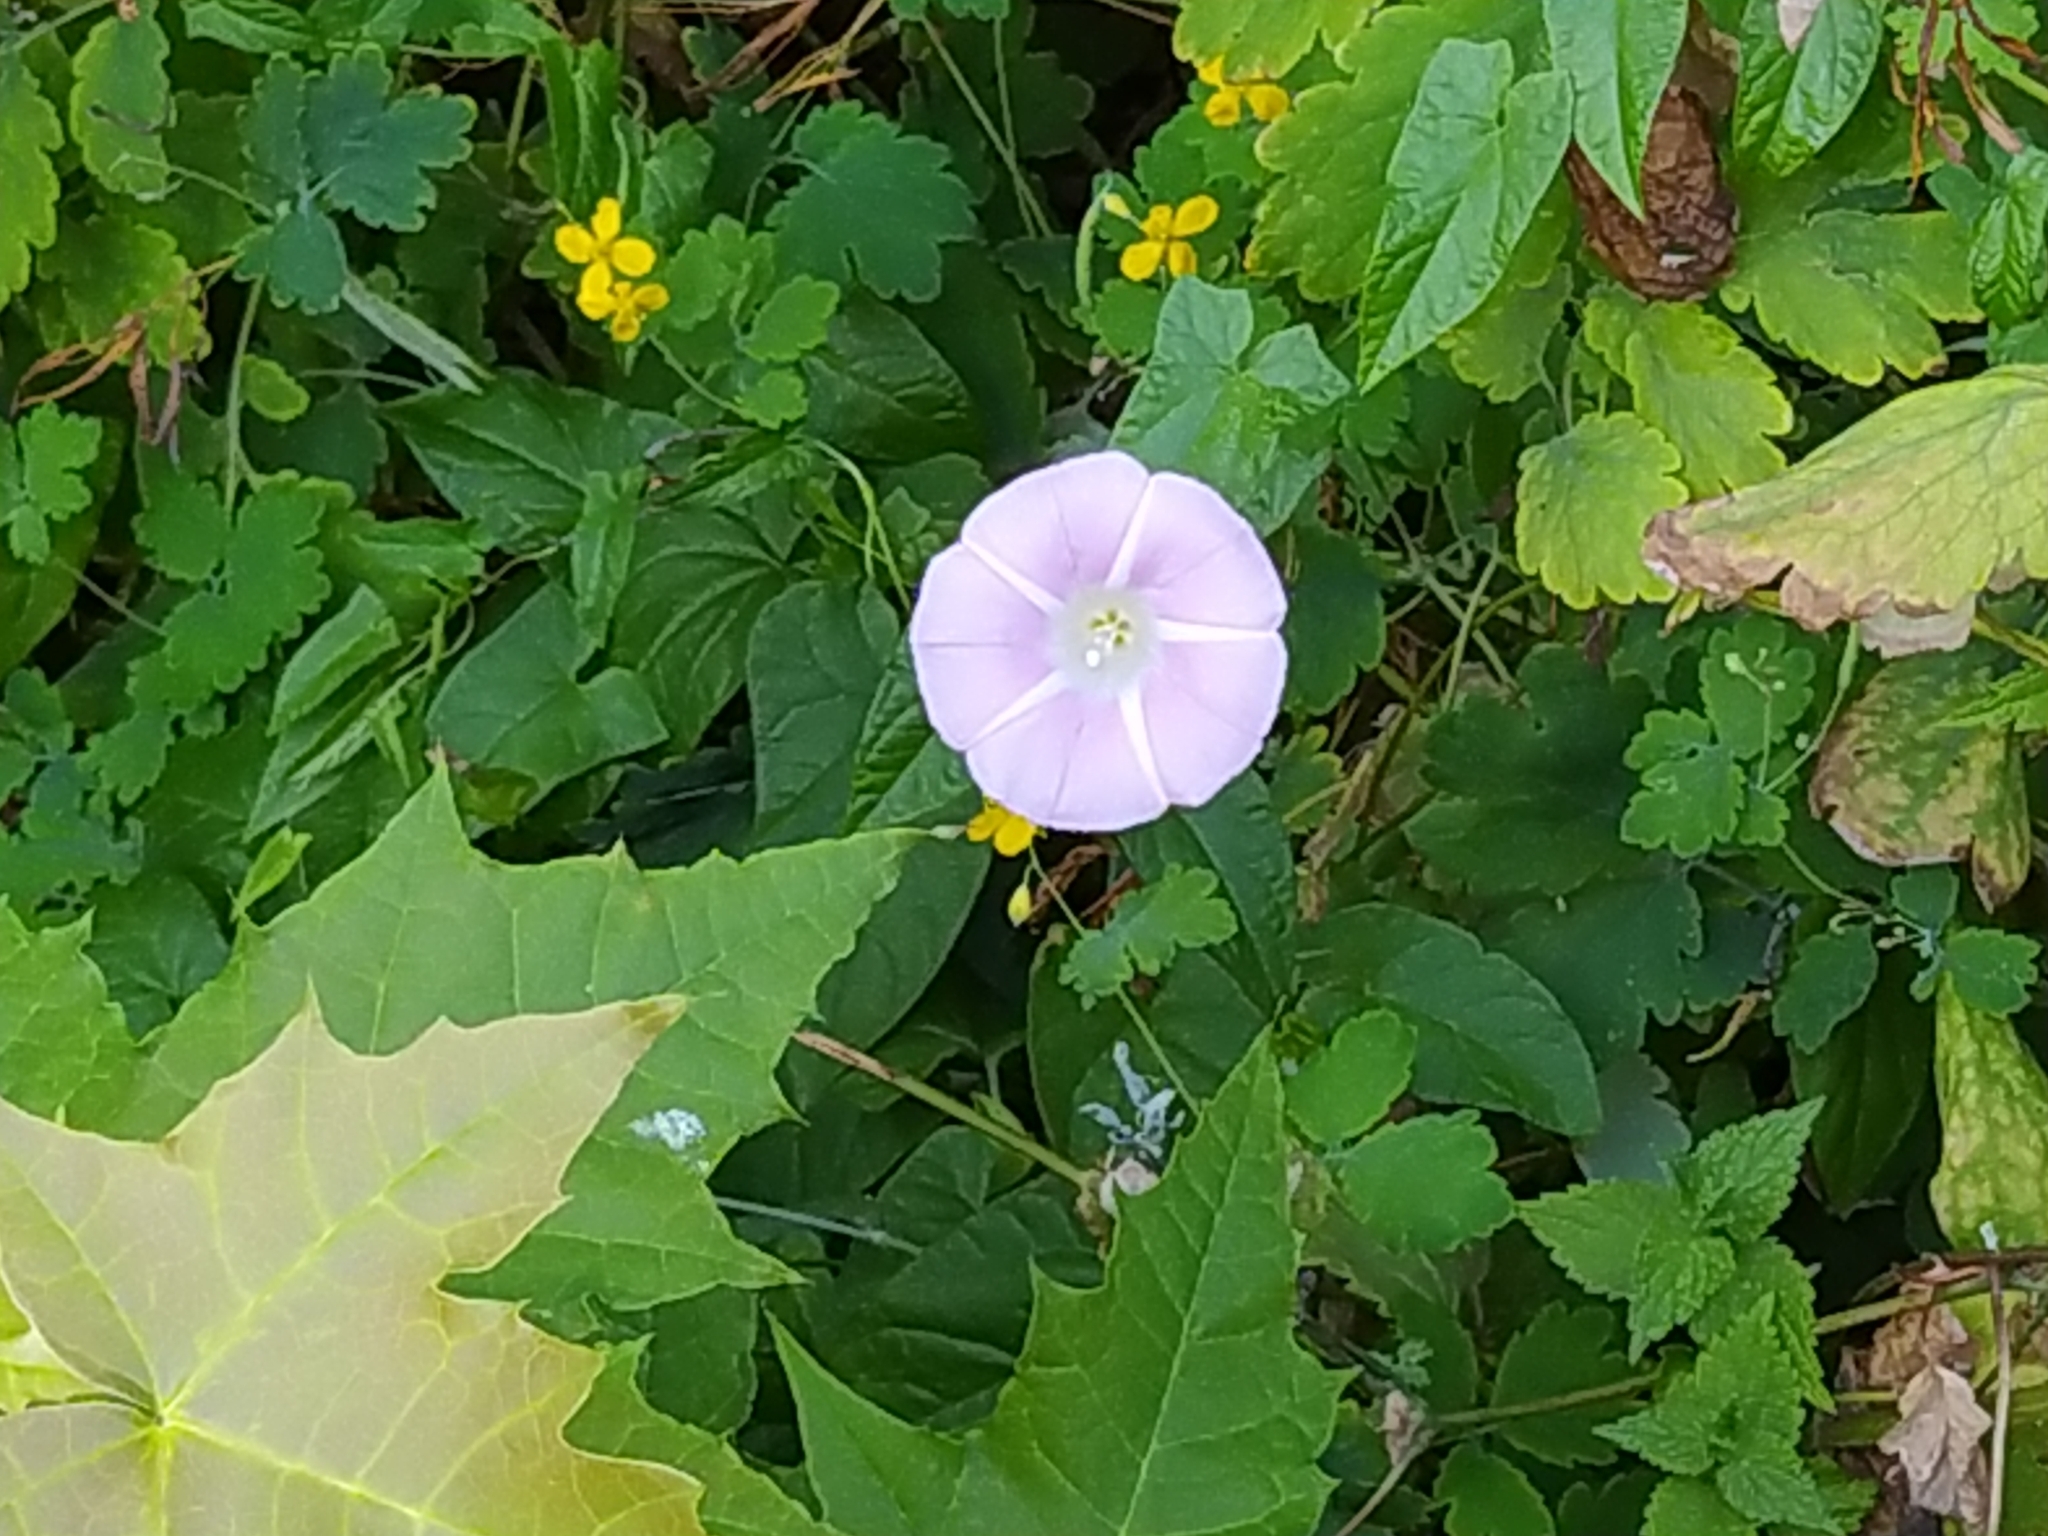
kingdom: Plantae
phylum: Tracheophyta
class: Magnoliopsida
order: Solanales
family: Convolvulaceae
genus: Calystegia
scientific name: Calystegia sepium
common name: Hedge bindweed
